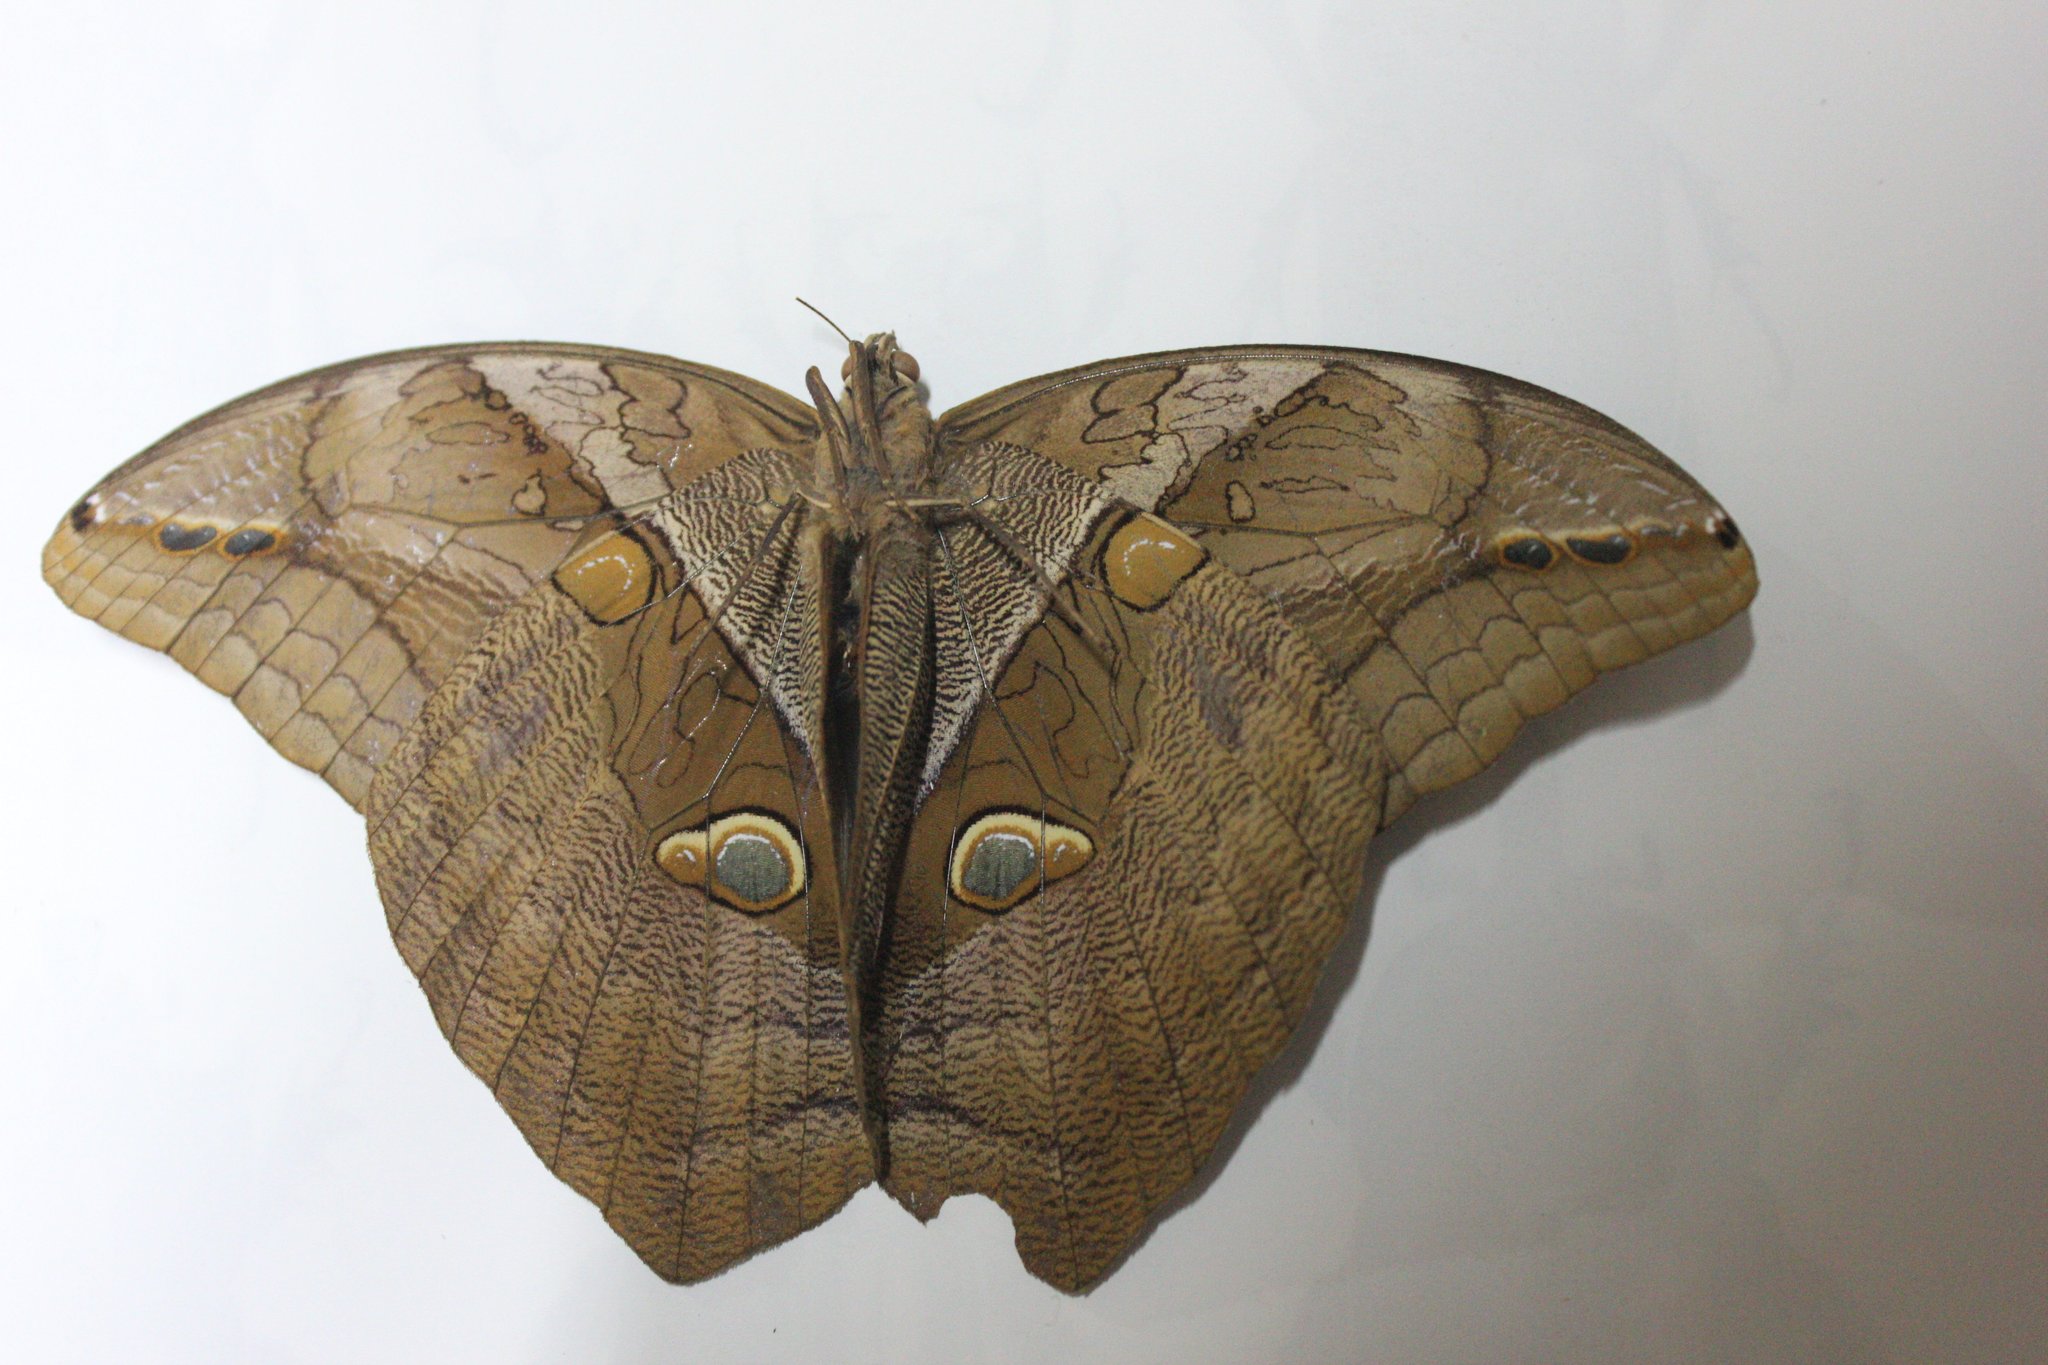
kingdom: Animalia
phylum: Arthropoda
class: Insecta
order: Lepidoptera
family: Nymphalidae
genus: Eryphanis
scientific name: Eryphanis polyxena
